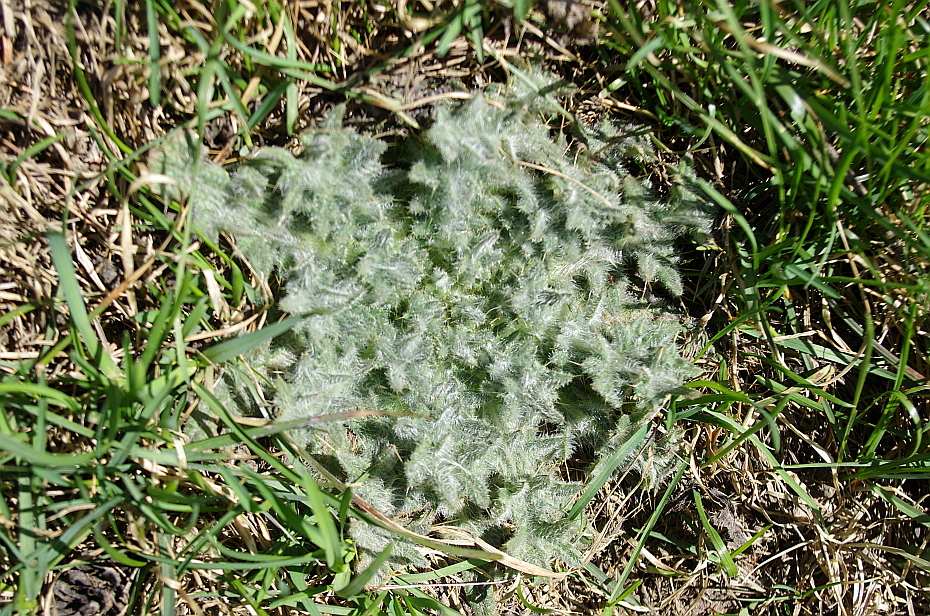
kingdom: Plantae
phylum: Tracheophyta
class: Magnoliopsida
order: Asterales
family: Asteraceae
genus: Cirsium
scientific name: Cirsium vulgare
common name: Bull thistle
